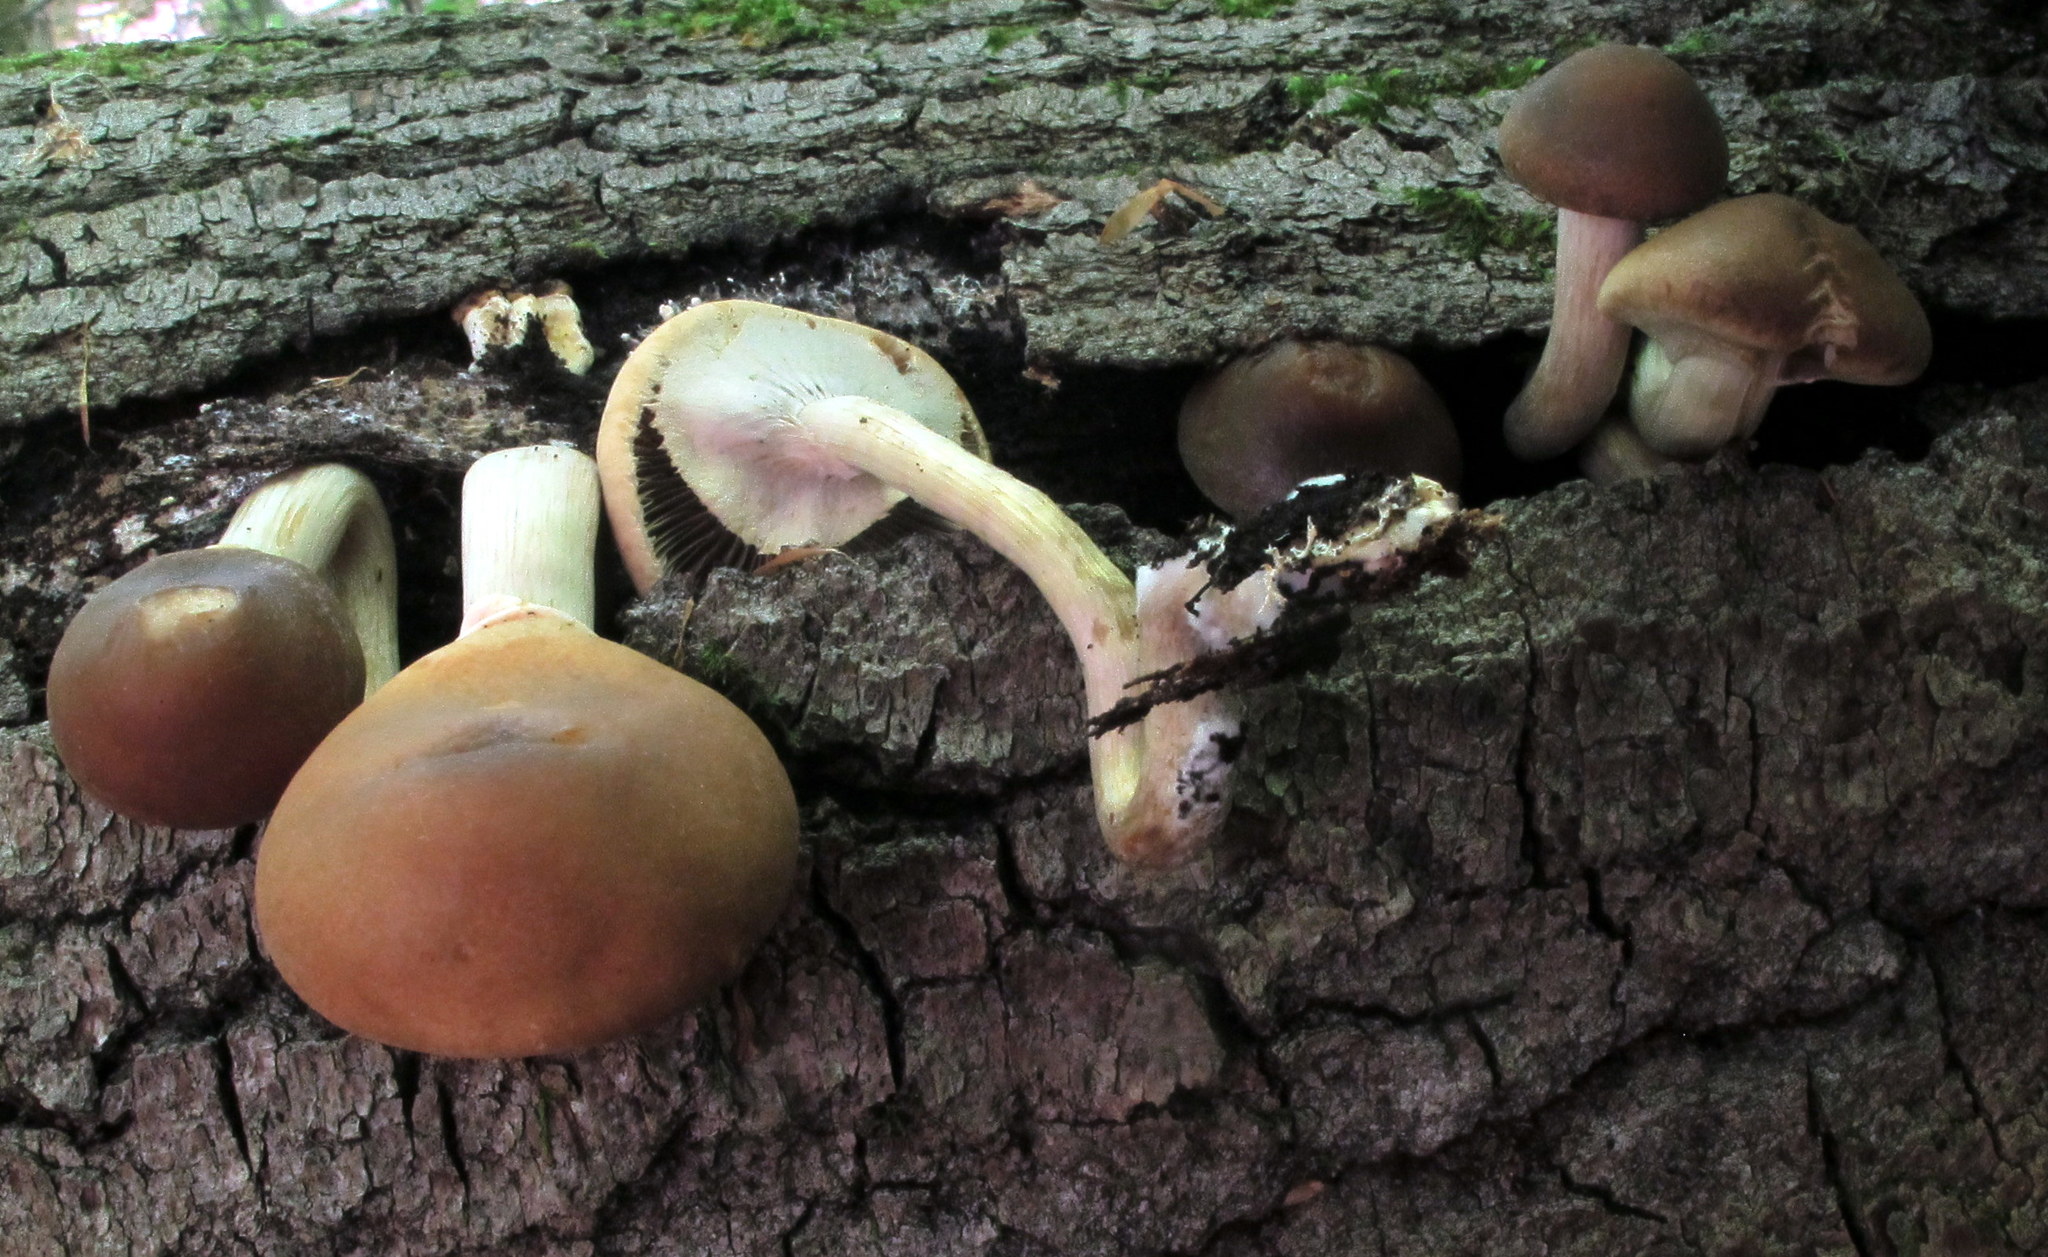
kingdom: Fungi
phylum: Basidiomycota
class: Agaricomycetes
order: Agaricales
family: Strophariaceae
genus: Agrocybe
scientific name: Agrocybe acericola
